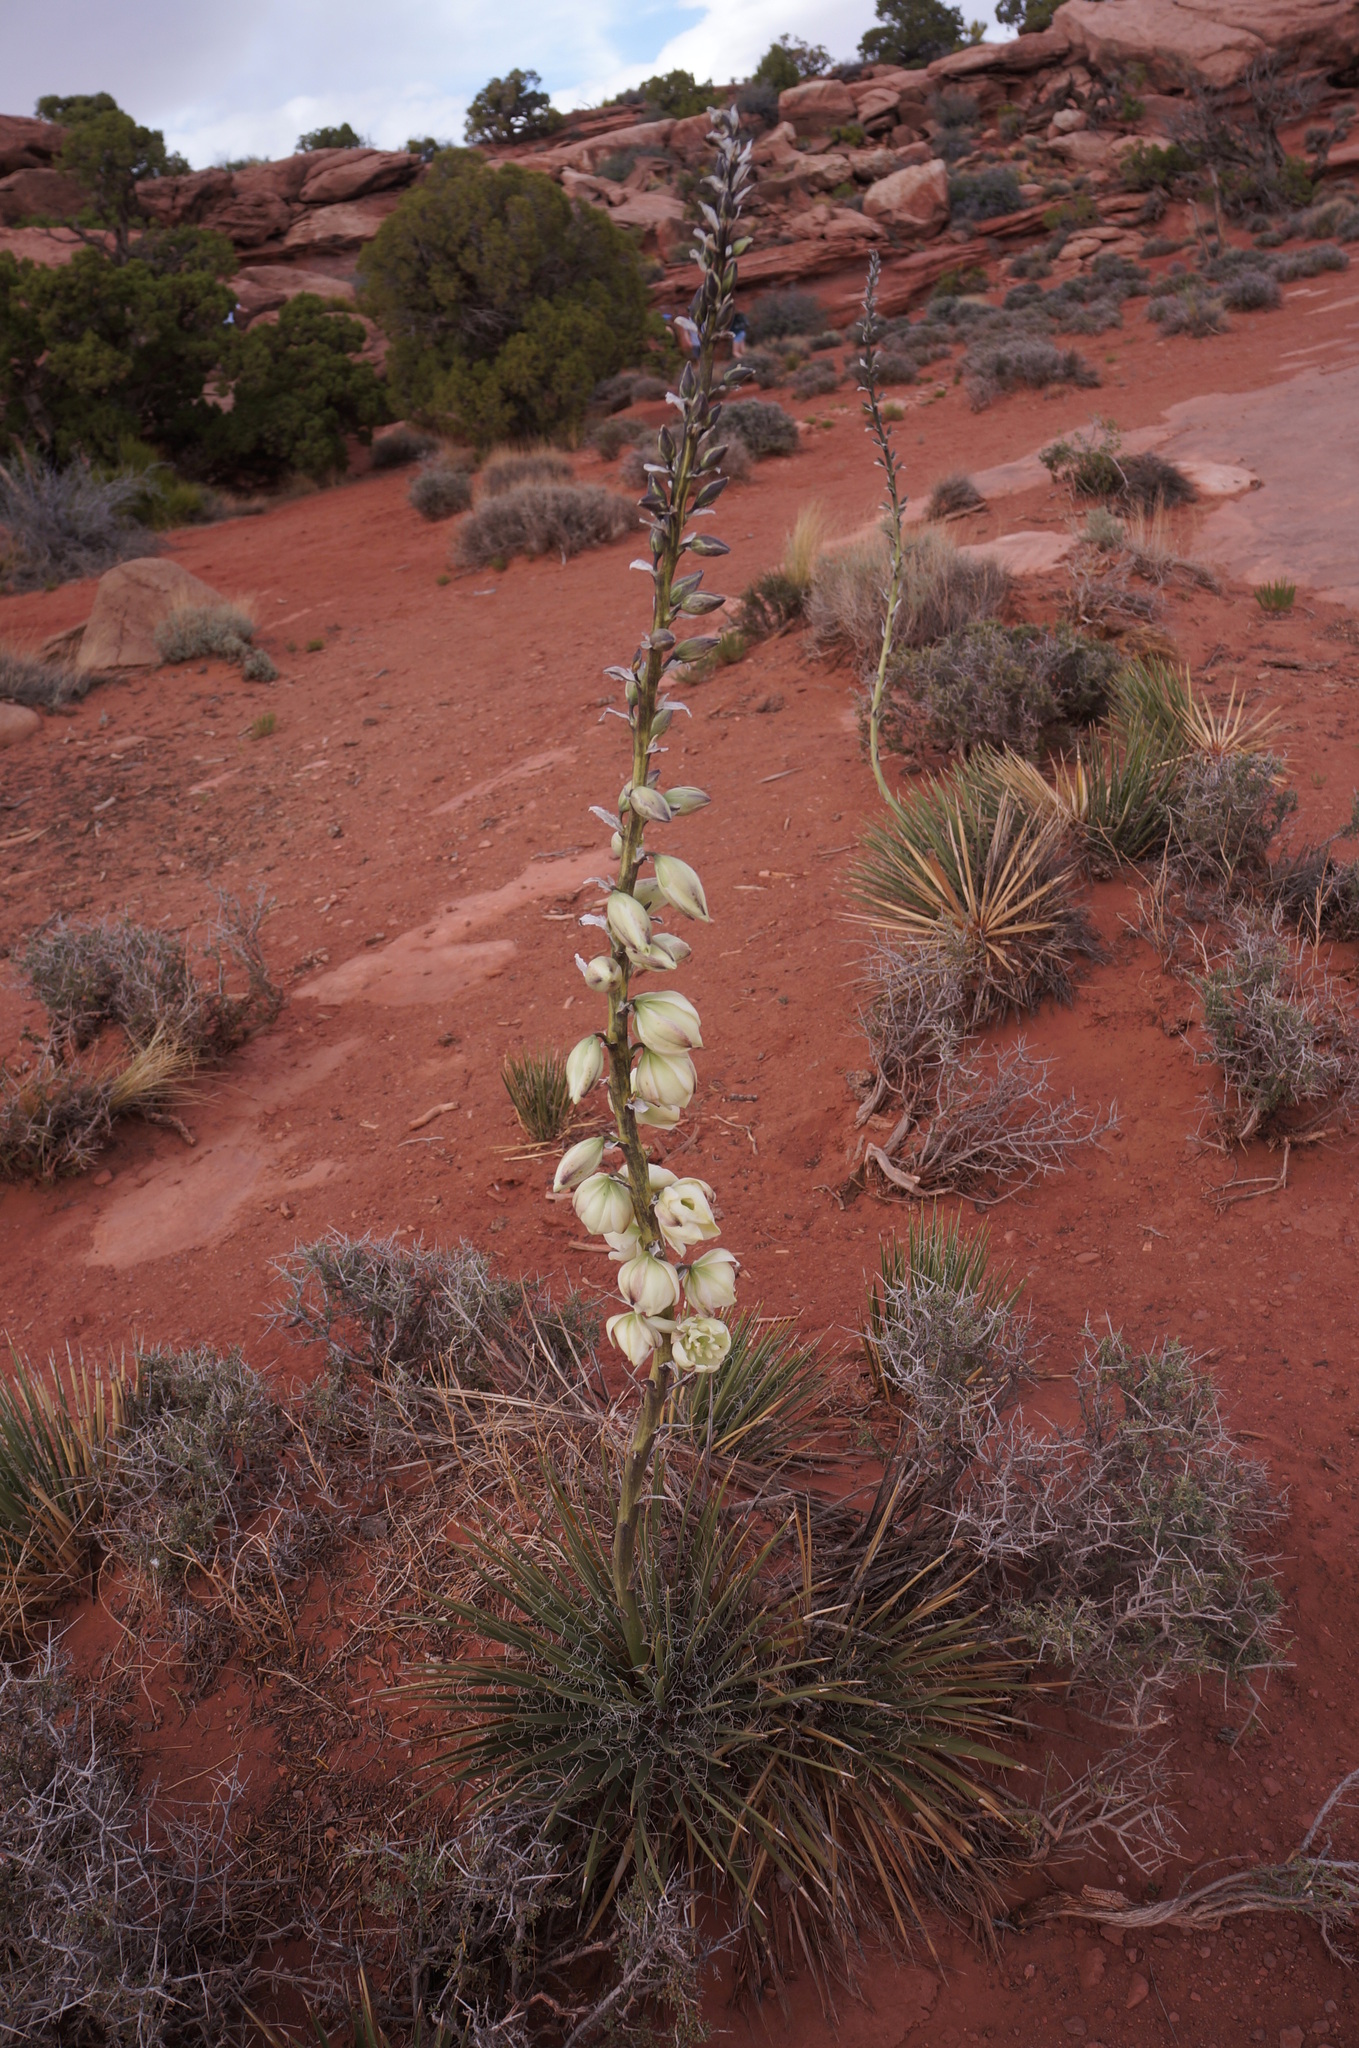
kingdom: Plantae
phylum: Tracheophyta
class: Liliopsida
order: Asparagales
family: Asparagaceae
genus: Yucca
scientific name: Yucca angustissima
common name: Narrowleaf yucca
